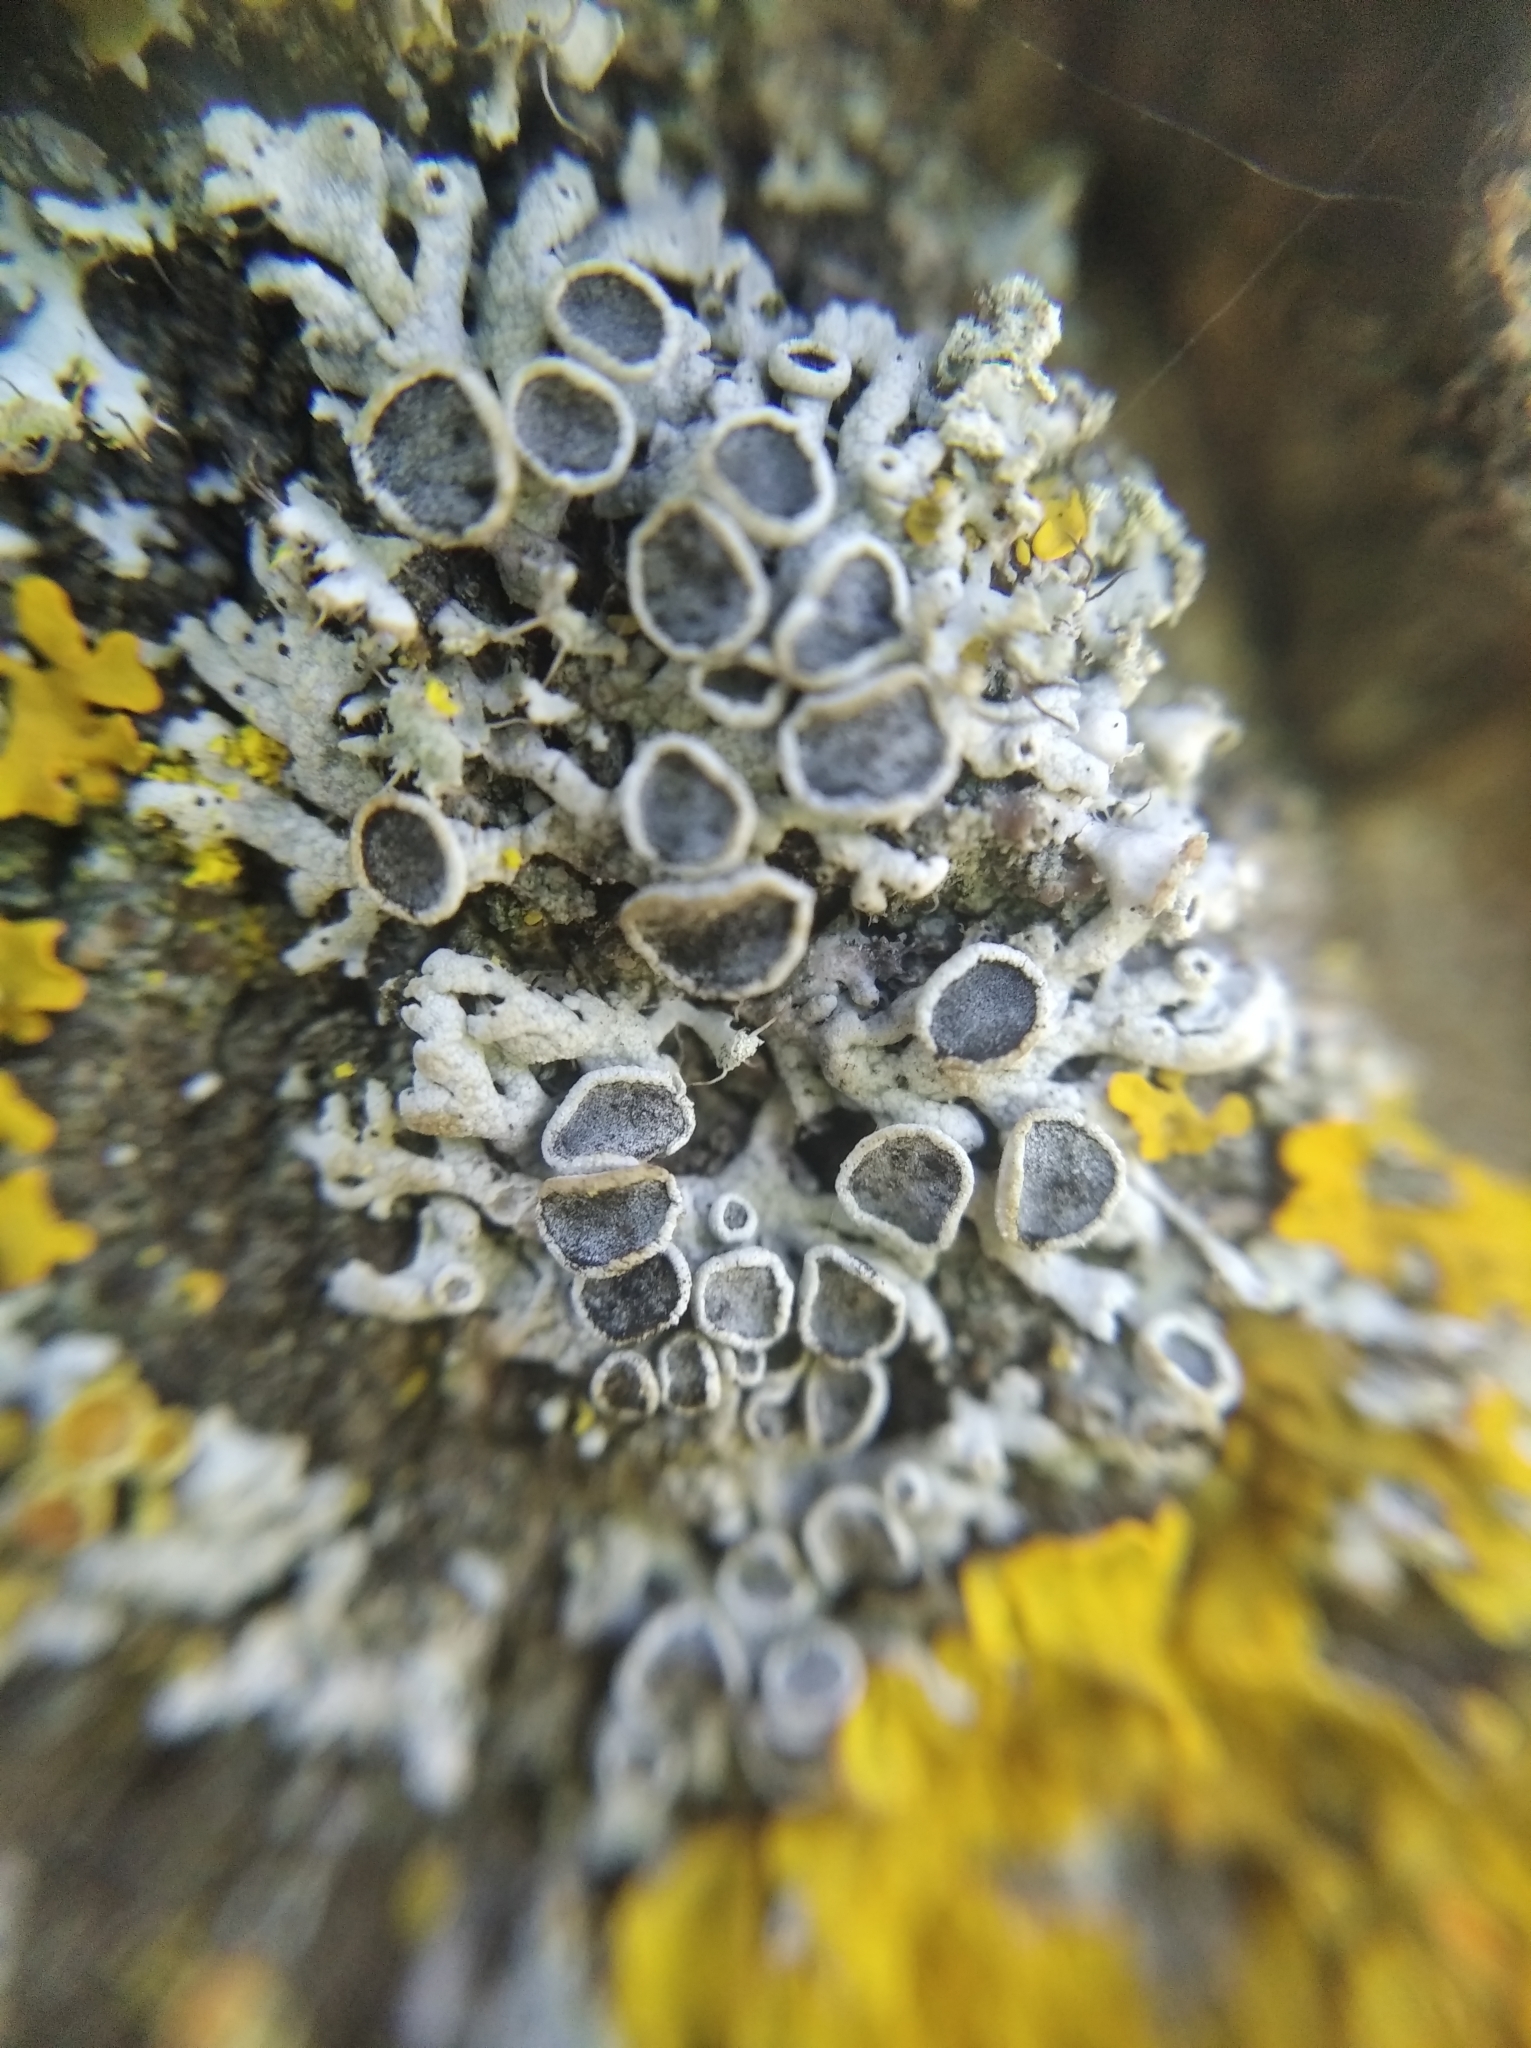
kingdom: Fungi
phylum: Ascomycota
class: Lecanoromycetes
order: Caliciales
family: Physciaceae
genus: Physcia
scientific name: Physcia stellaris
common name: Star rosette lichen
